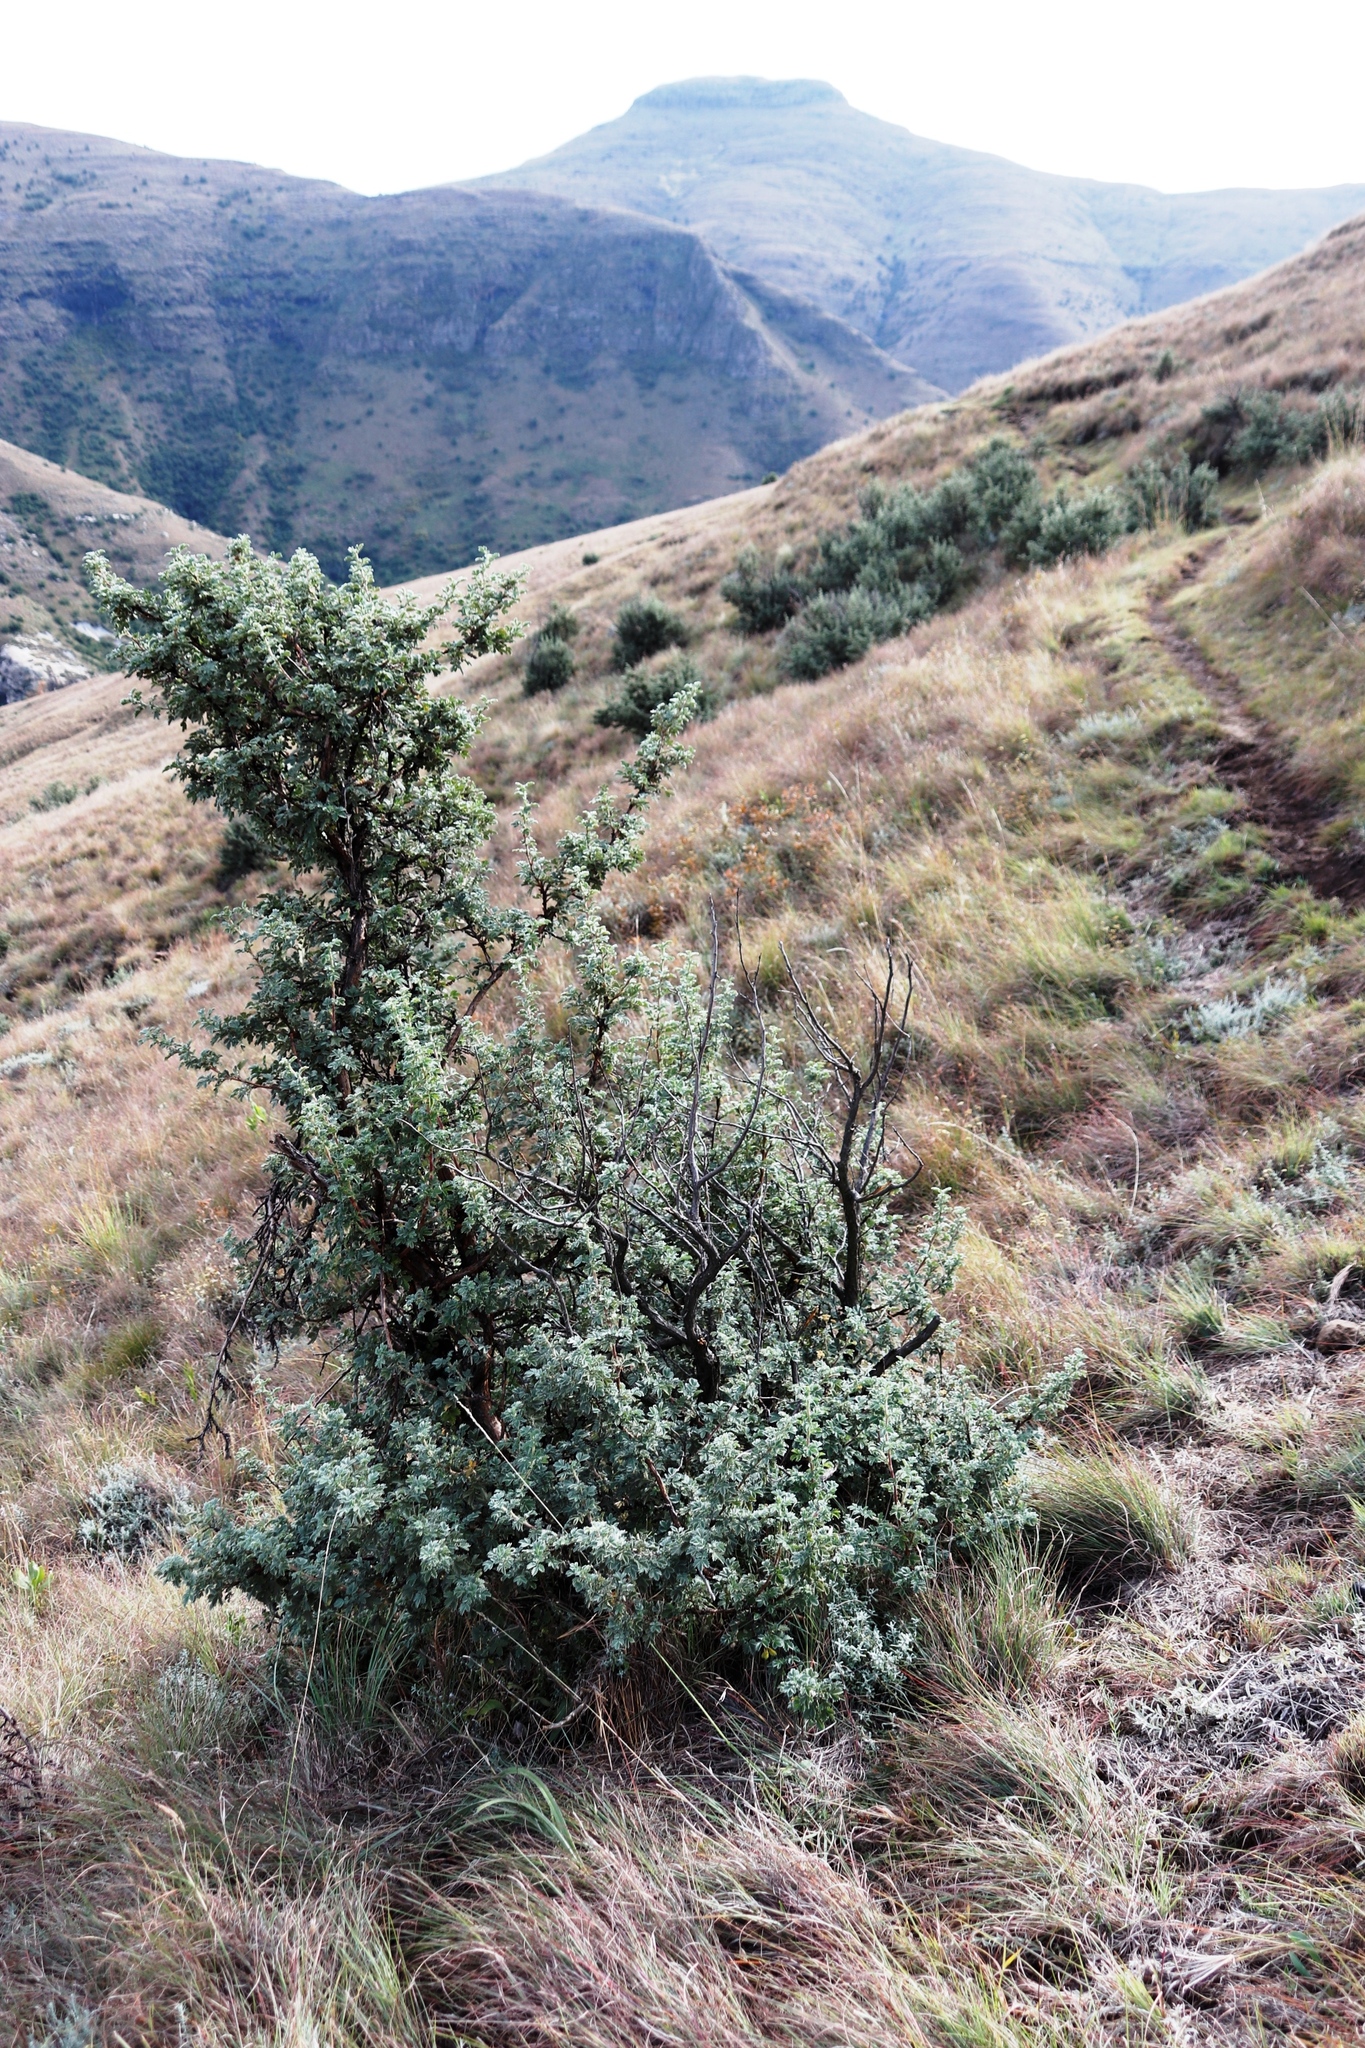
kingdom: Plantae
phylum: Tracheophyta
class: Magnoliopsida
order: Rosales
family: Rosaceae
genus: Leucosidea
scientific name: Leucosidea sericea
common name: Oldwood
